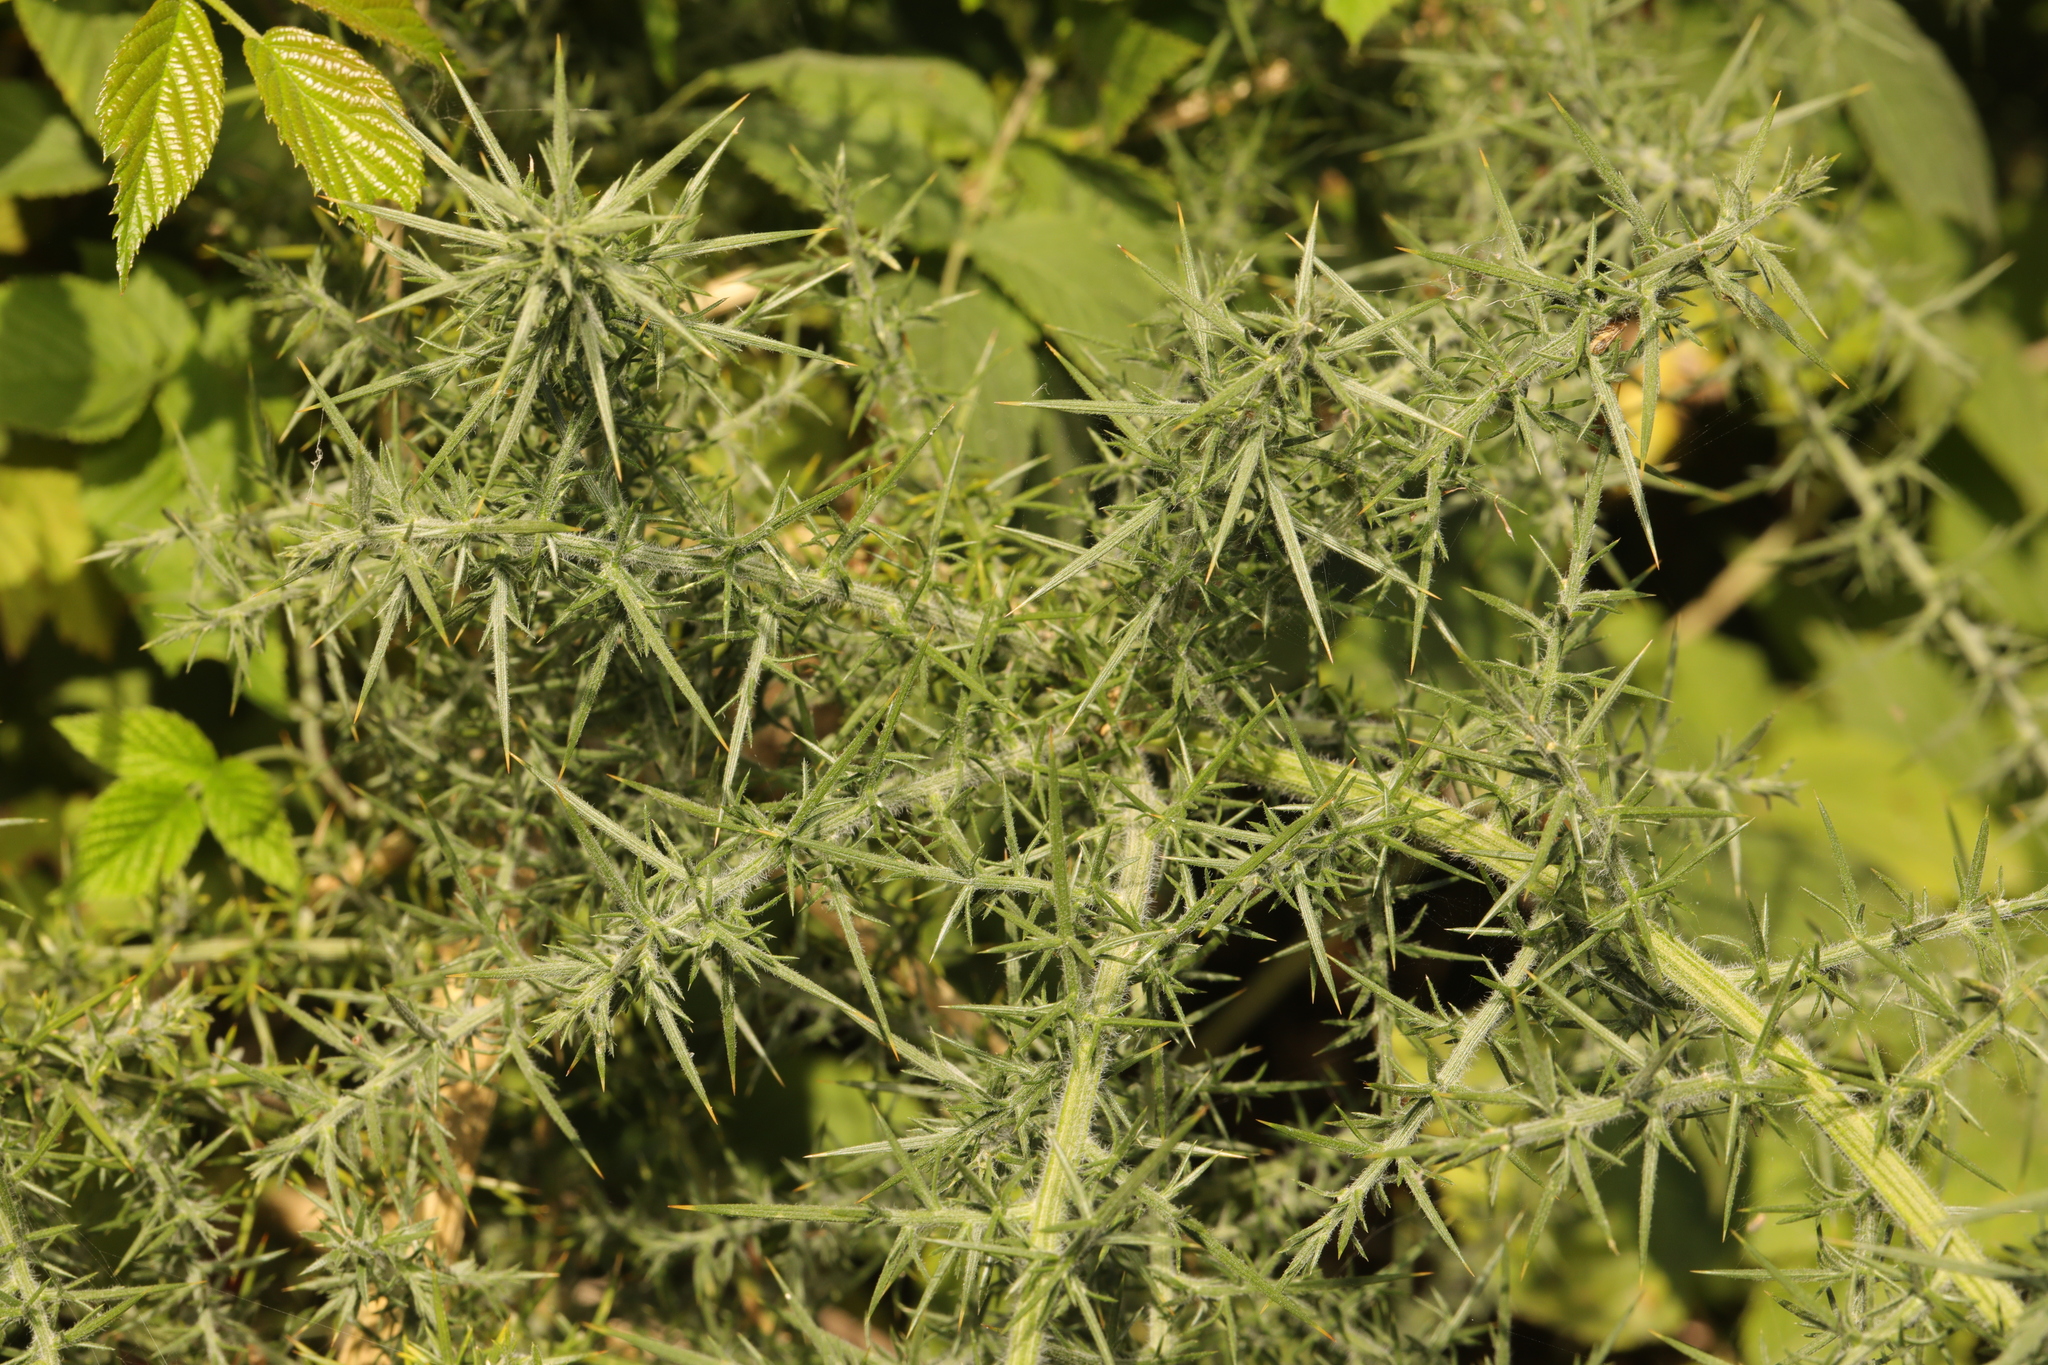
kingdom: Plantae
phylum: Tracheophyta
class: Magnoliopsida
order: Fabales
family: Fabaceae
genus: Ulex
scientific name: Ulex europaeus
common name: Common gorse
